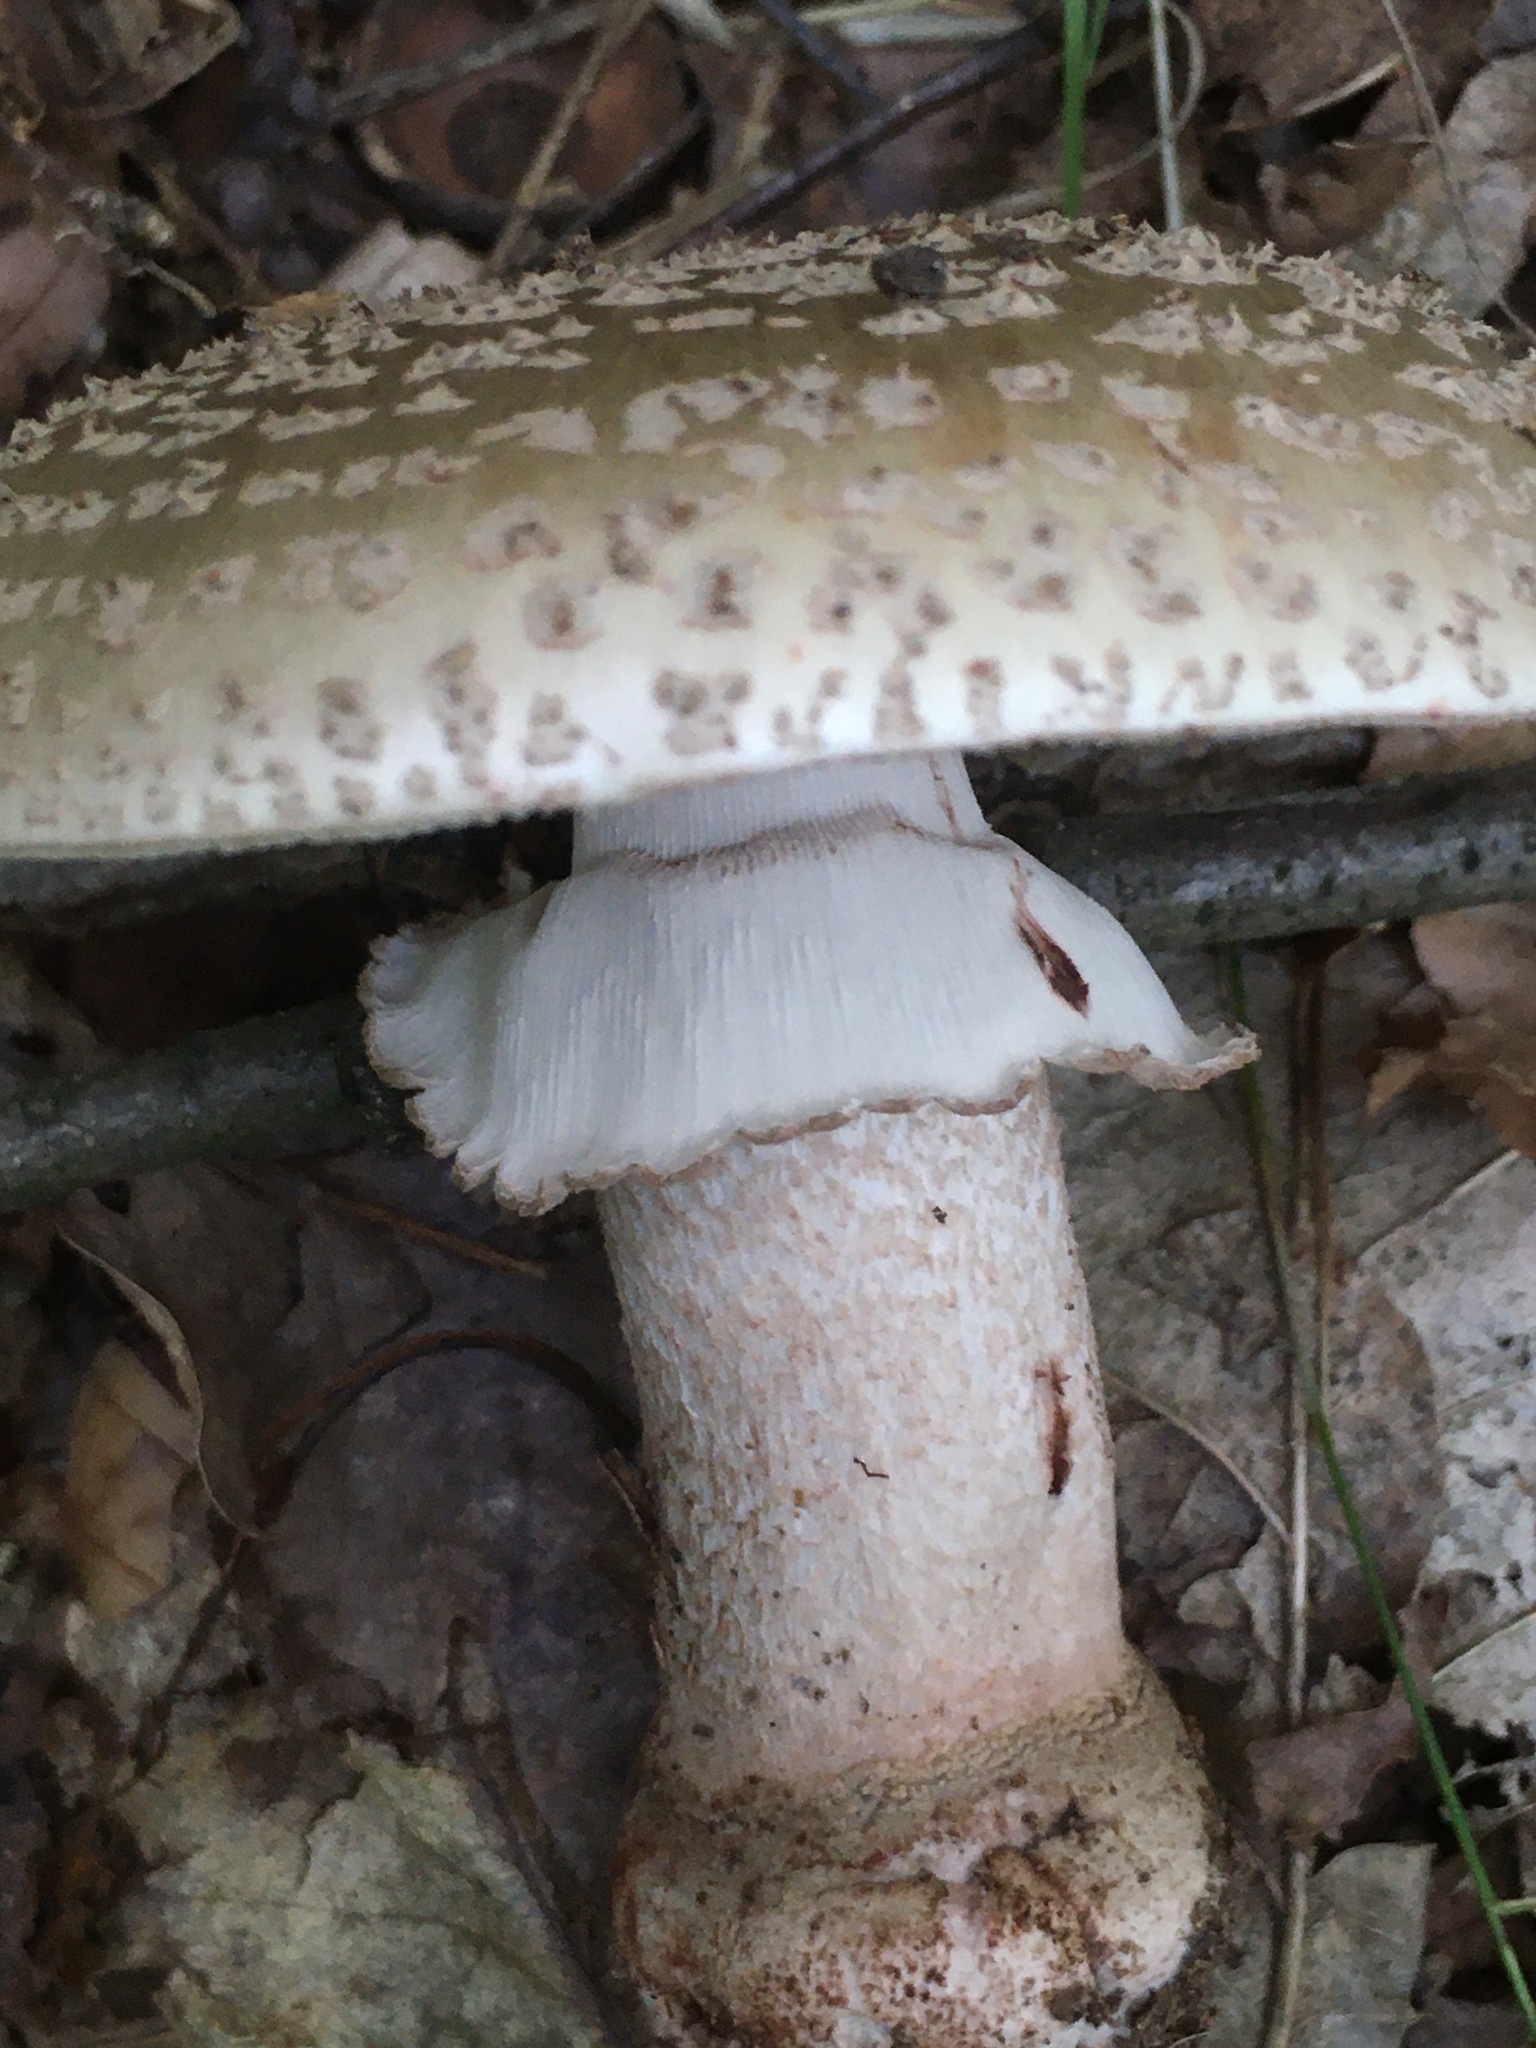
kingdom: Fungi
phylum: Basidiomycota
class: Agaricomycetes
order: Agaricales
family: Amanitaceae
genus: Amanita
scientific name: Amanita rubescens
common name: Blusher
